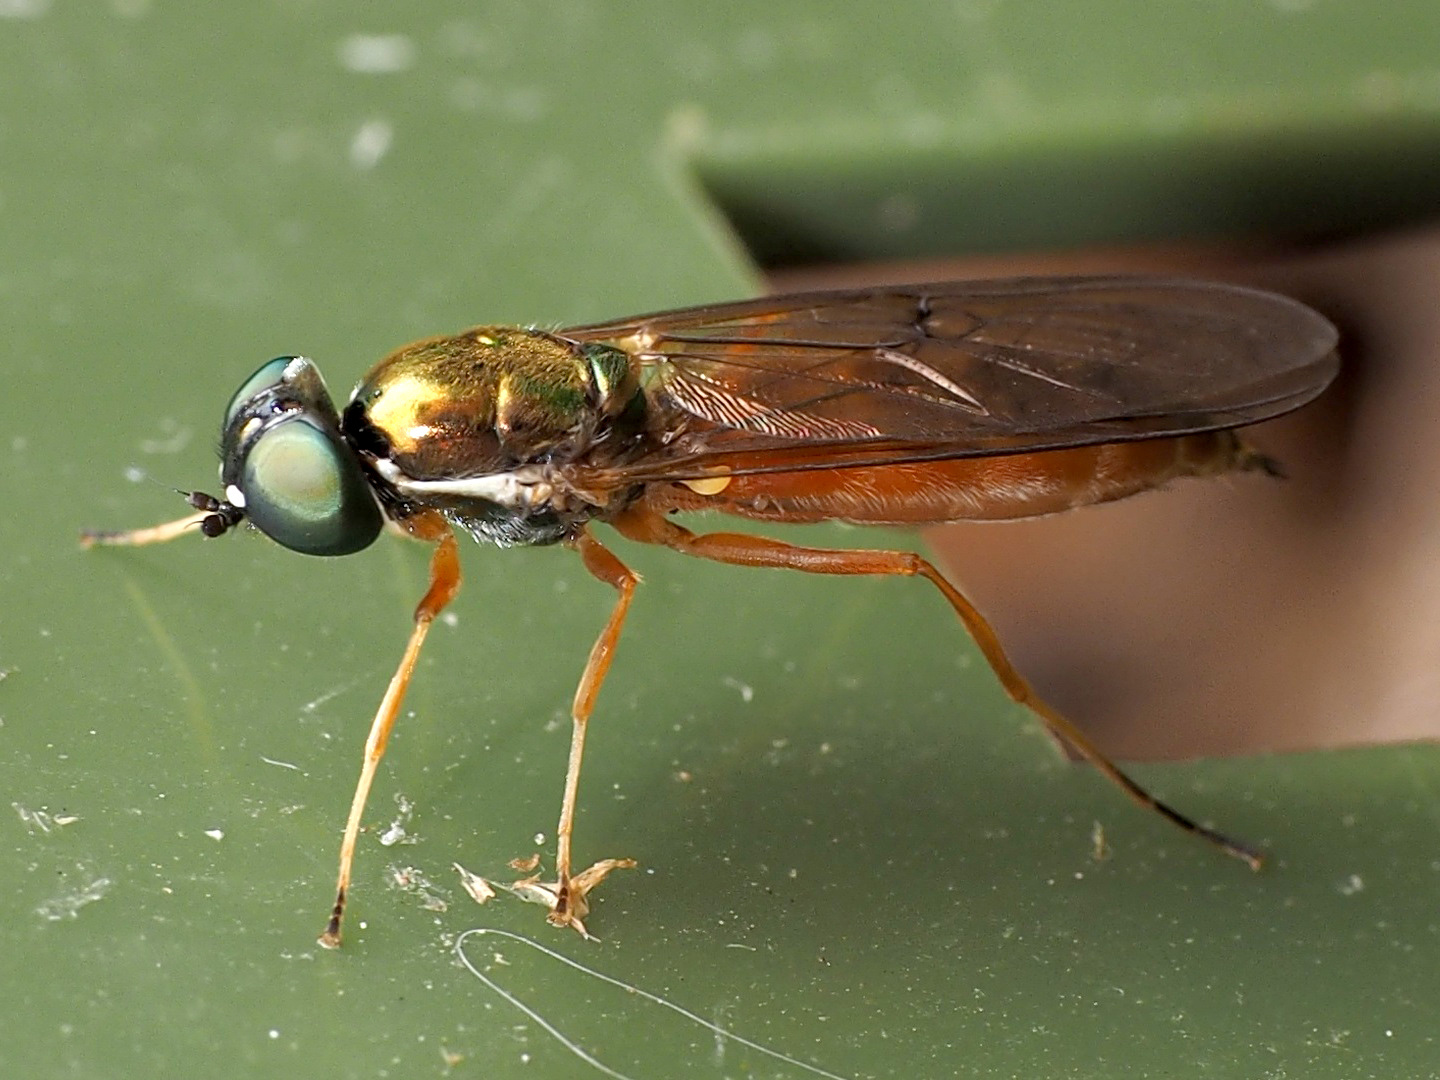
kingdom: Animalia
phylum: Arthropoda
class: Insecta
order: Diptera
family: Stratiomyidae
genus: Sargus
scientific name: Sargus bipunctatus
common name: Twin-spot centurion
